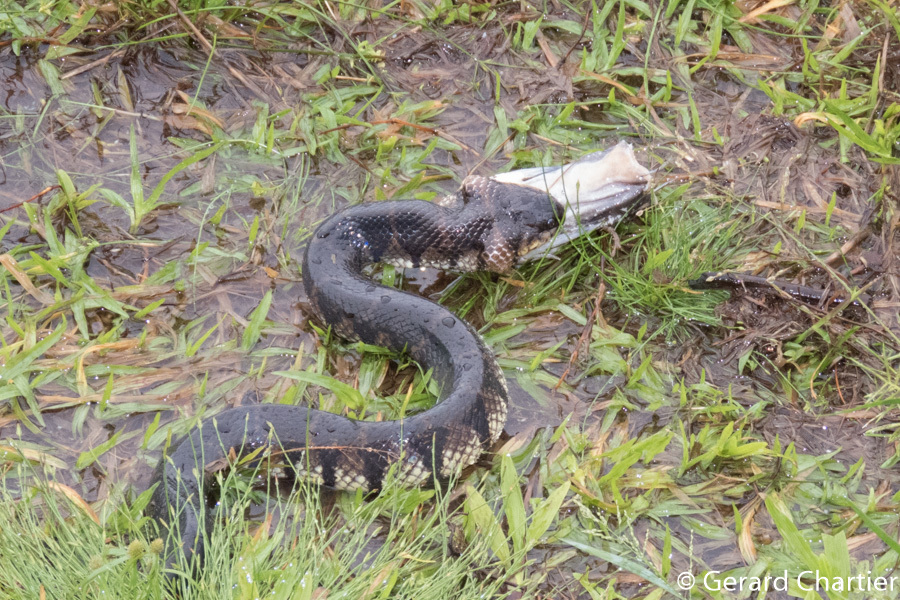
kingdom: Animalia
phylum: Chordata
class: Squamata
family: Homalopsidae
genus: Subsessor
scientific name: Subsessor bocourti
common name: Bocourt's water snake
